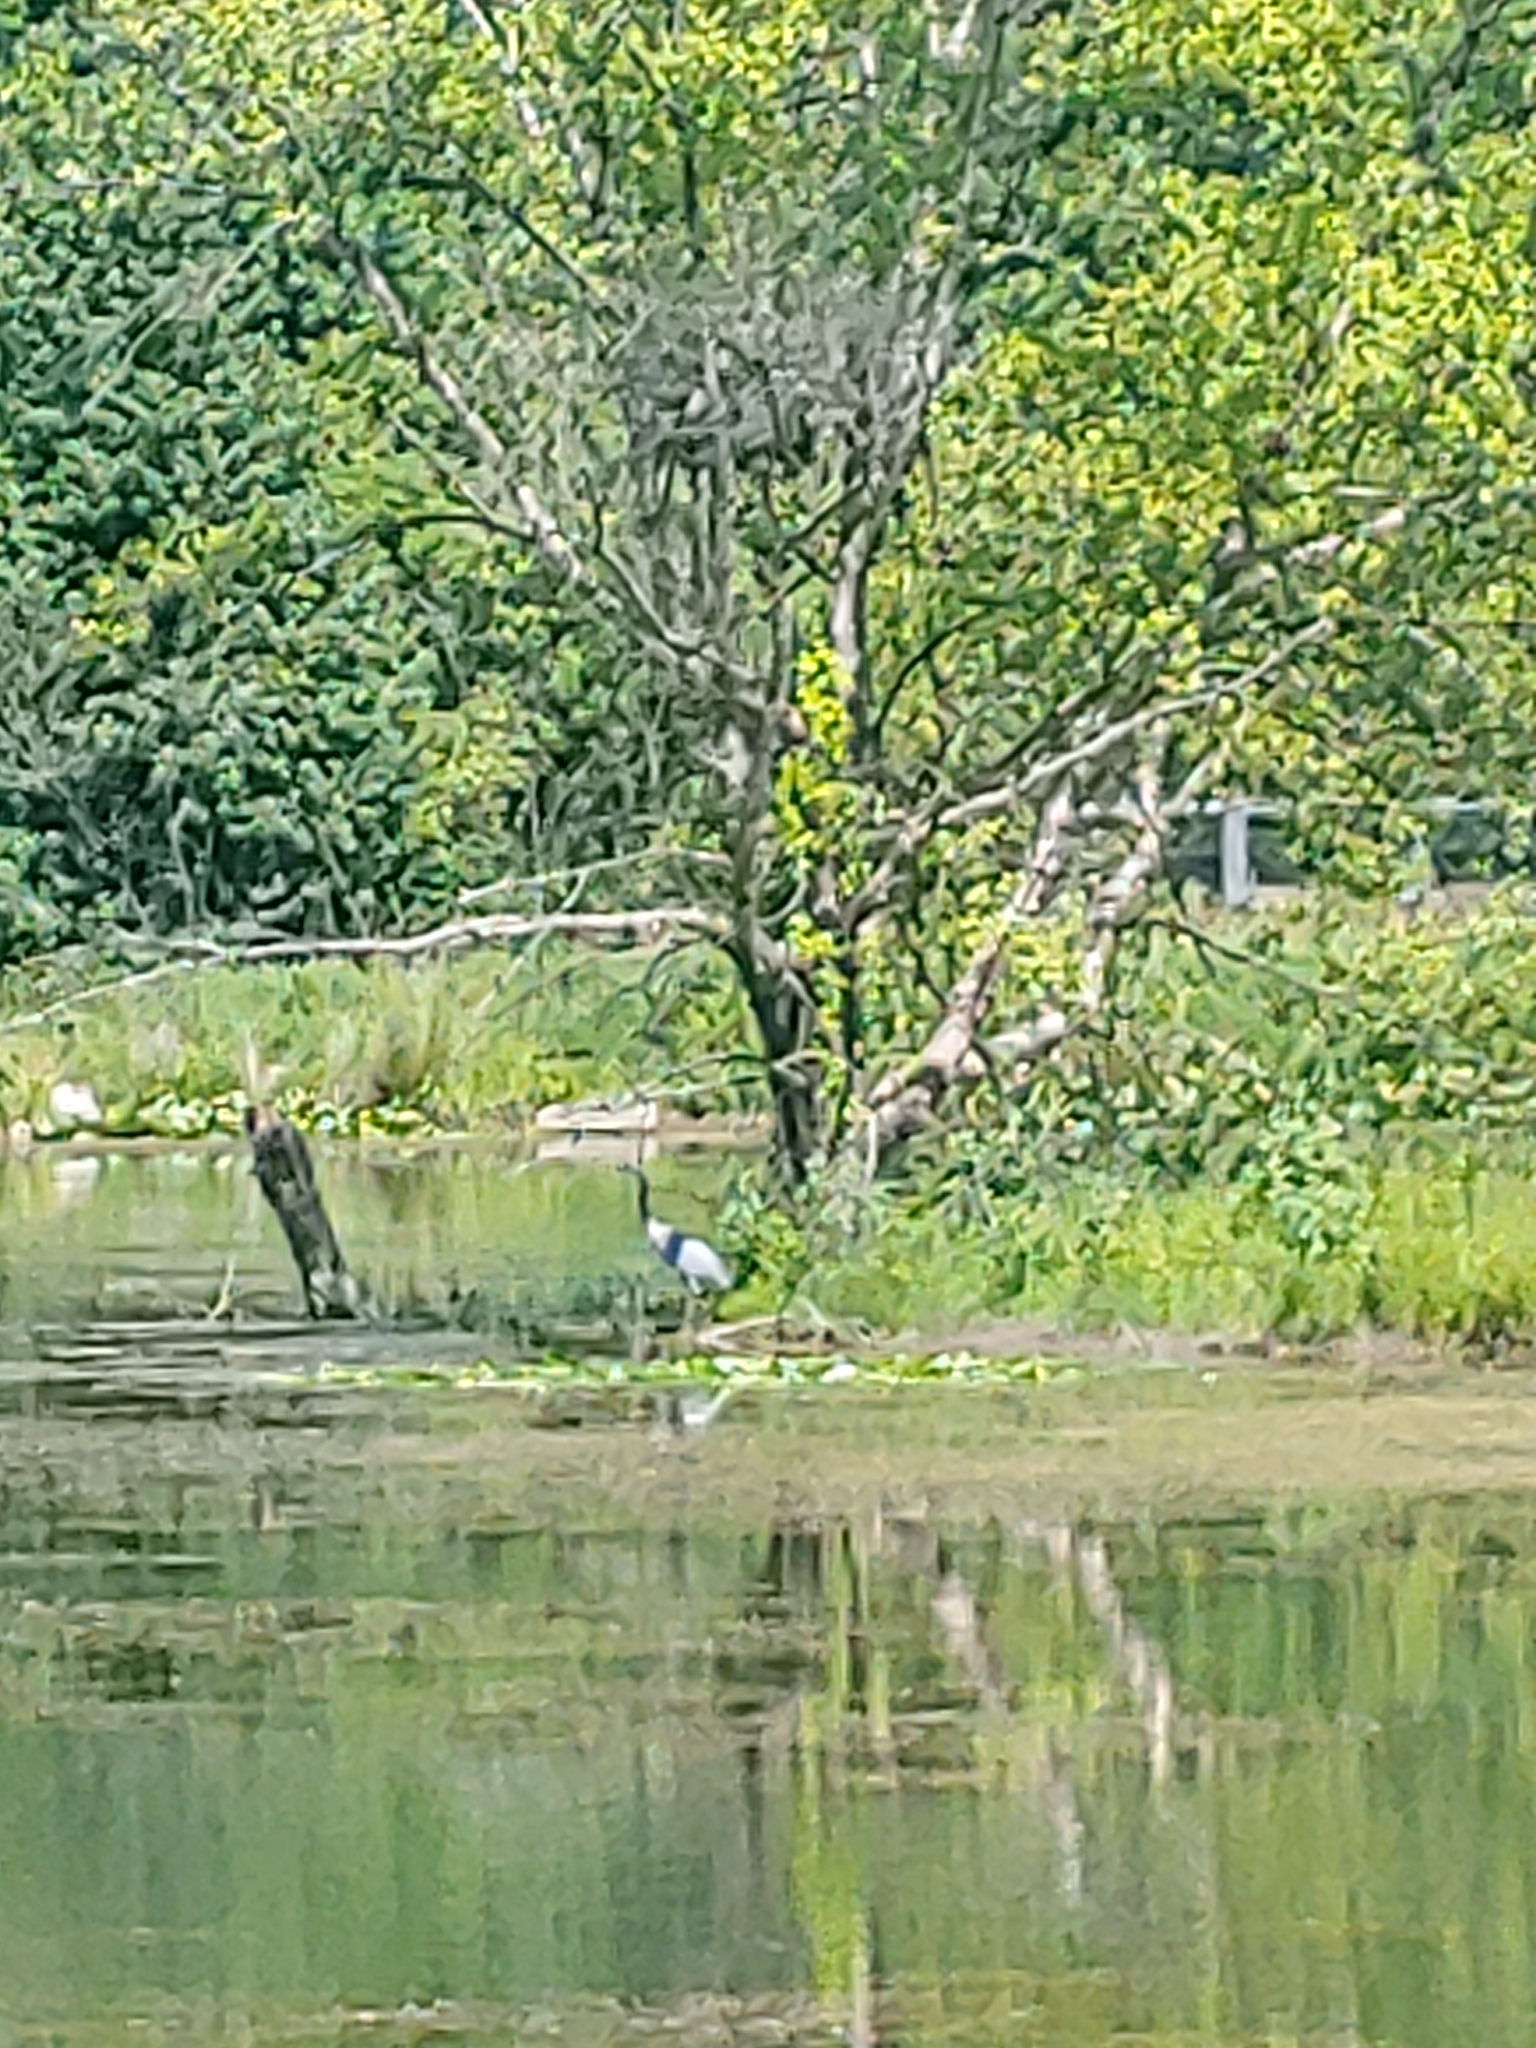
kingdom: Animalia
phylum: Chordata
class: Aves
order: Pelecaniformes
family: Ardeidae
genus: Ardea
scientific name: Ardea herodias
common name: Great blue heron
